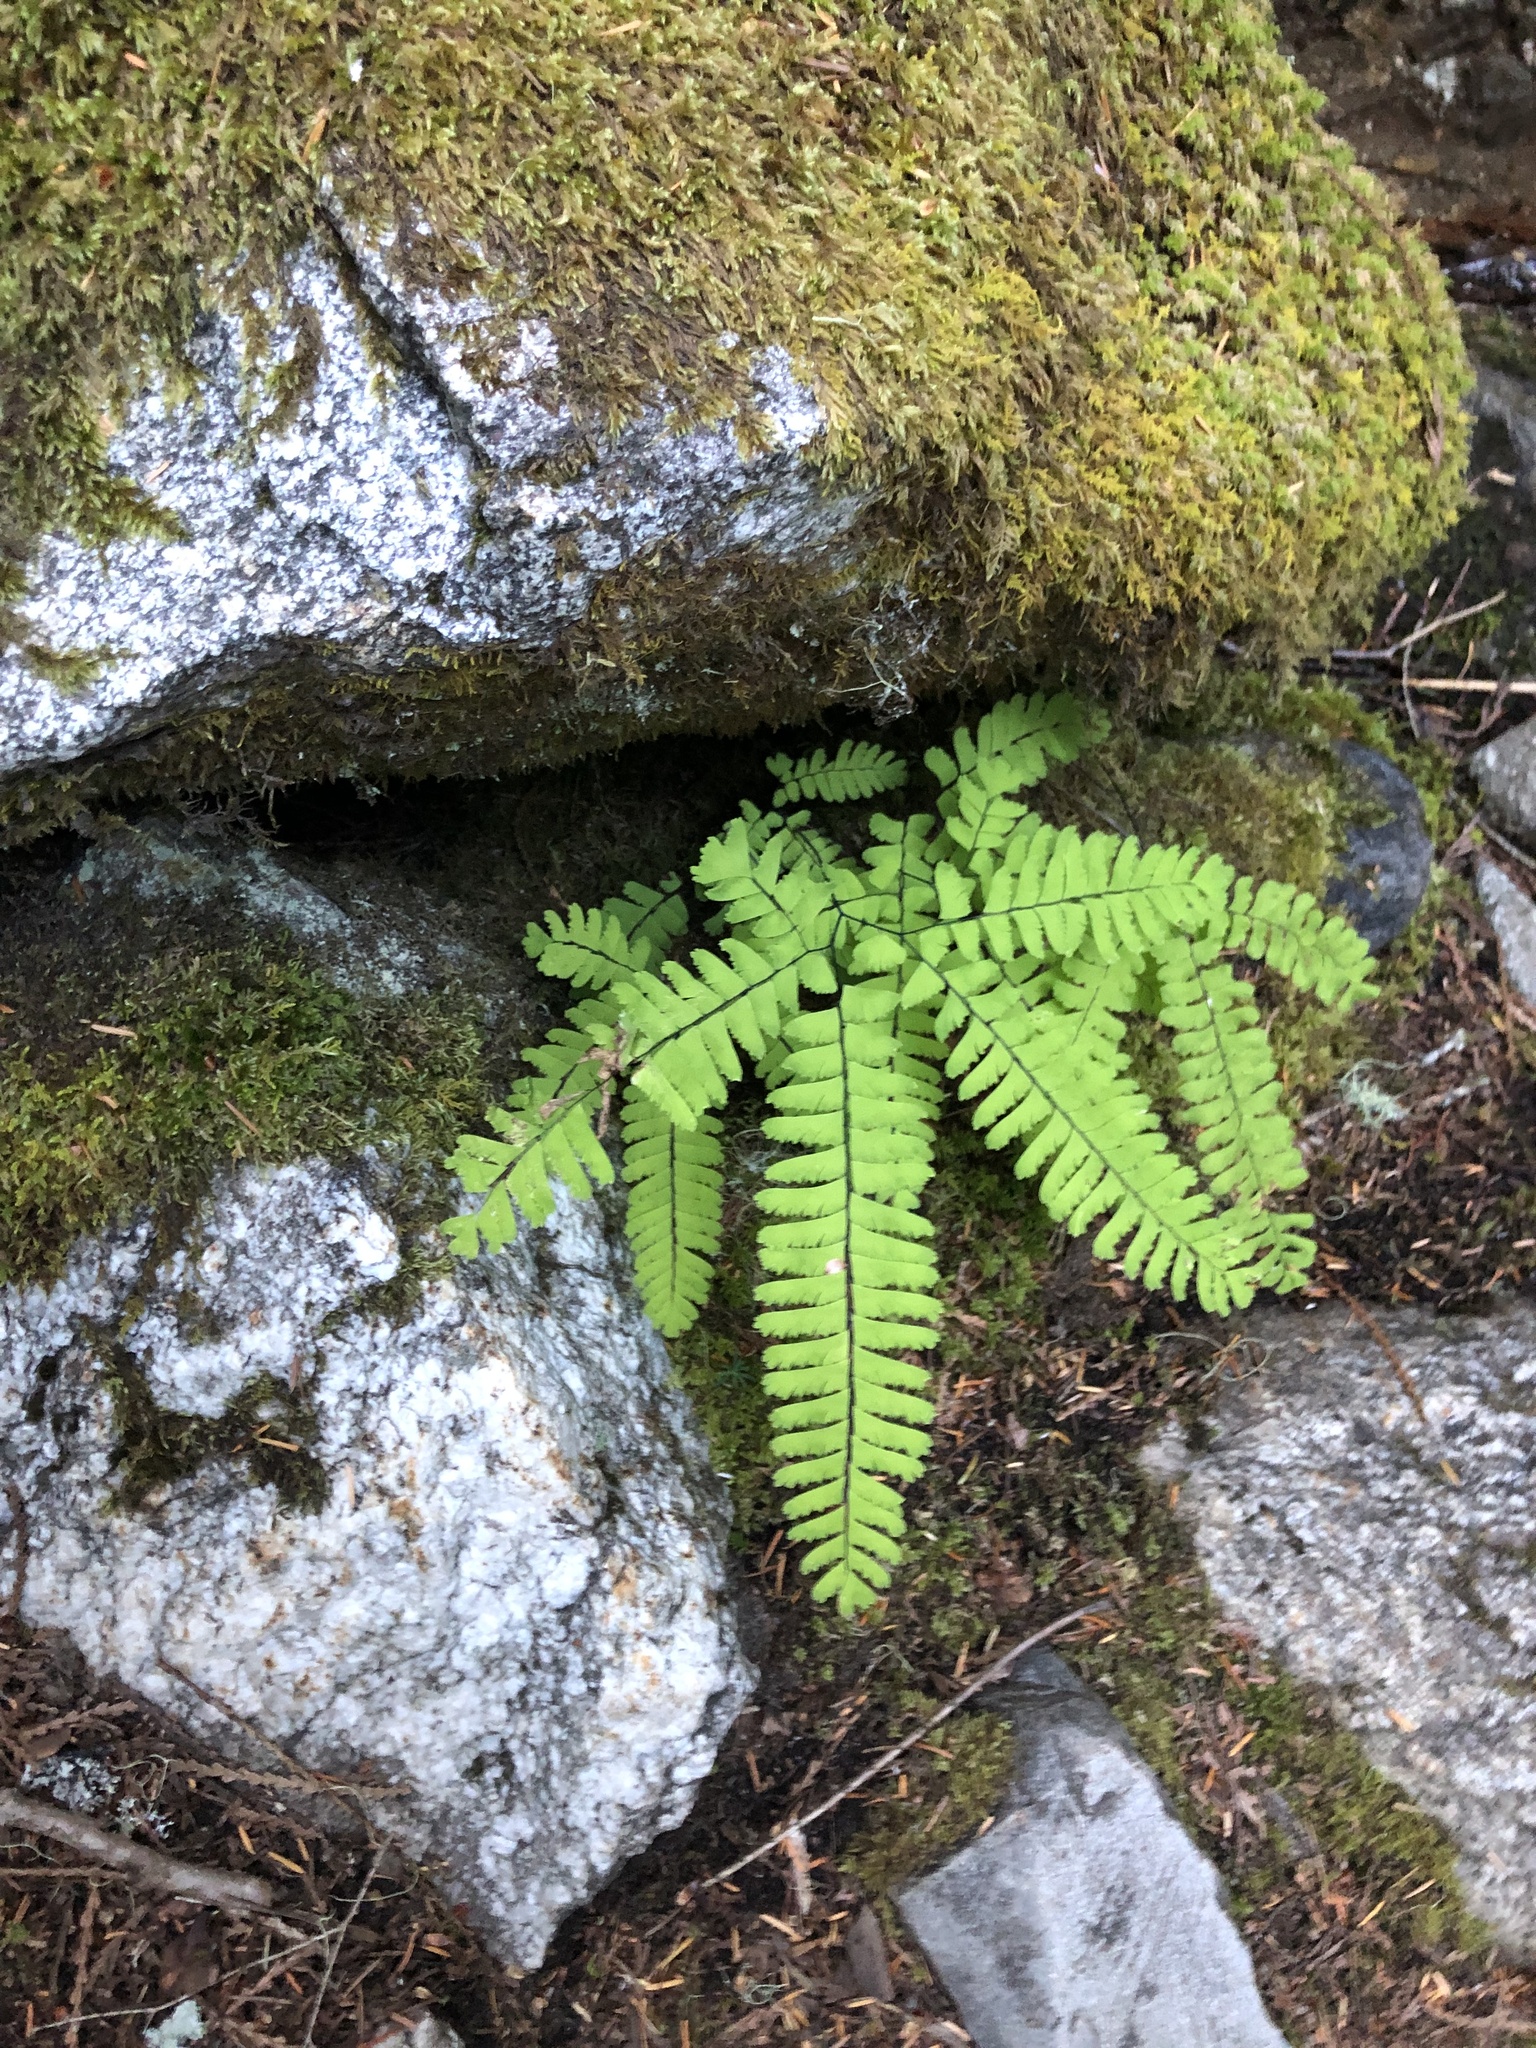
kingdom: Plantae
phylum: Tracheophyta
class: Polypodiopsida
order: Polypodiales
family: Pteridaceae
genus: Adiantum
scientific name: Adiantum aleuticum
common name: Aleutian maidenhair fern
